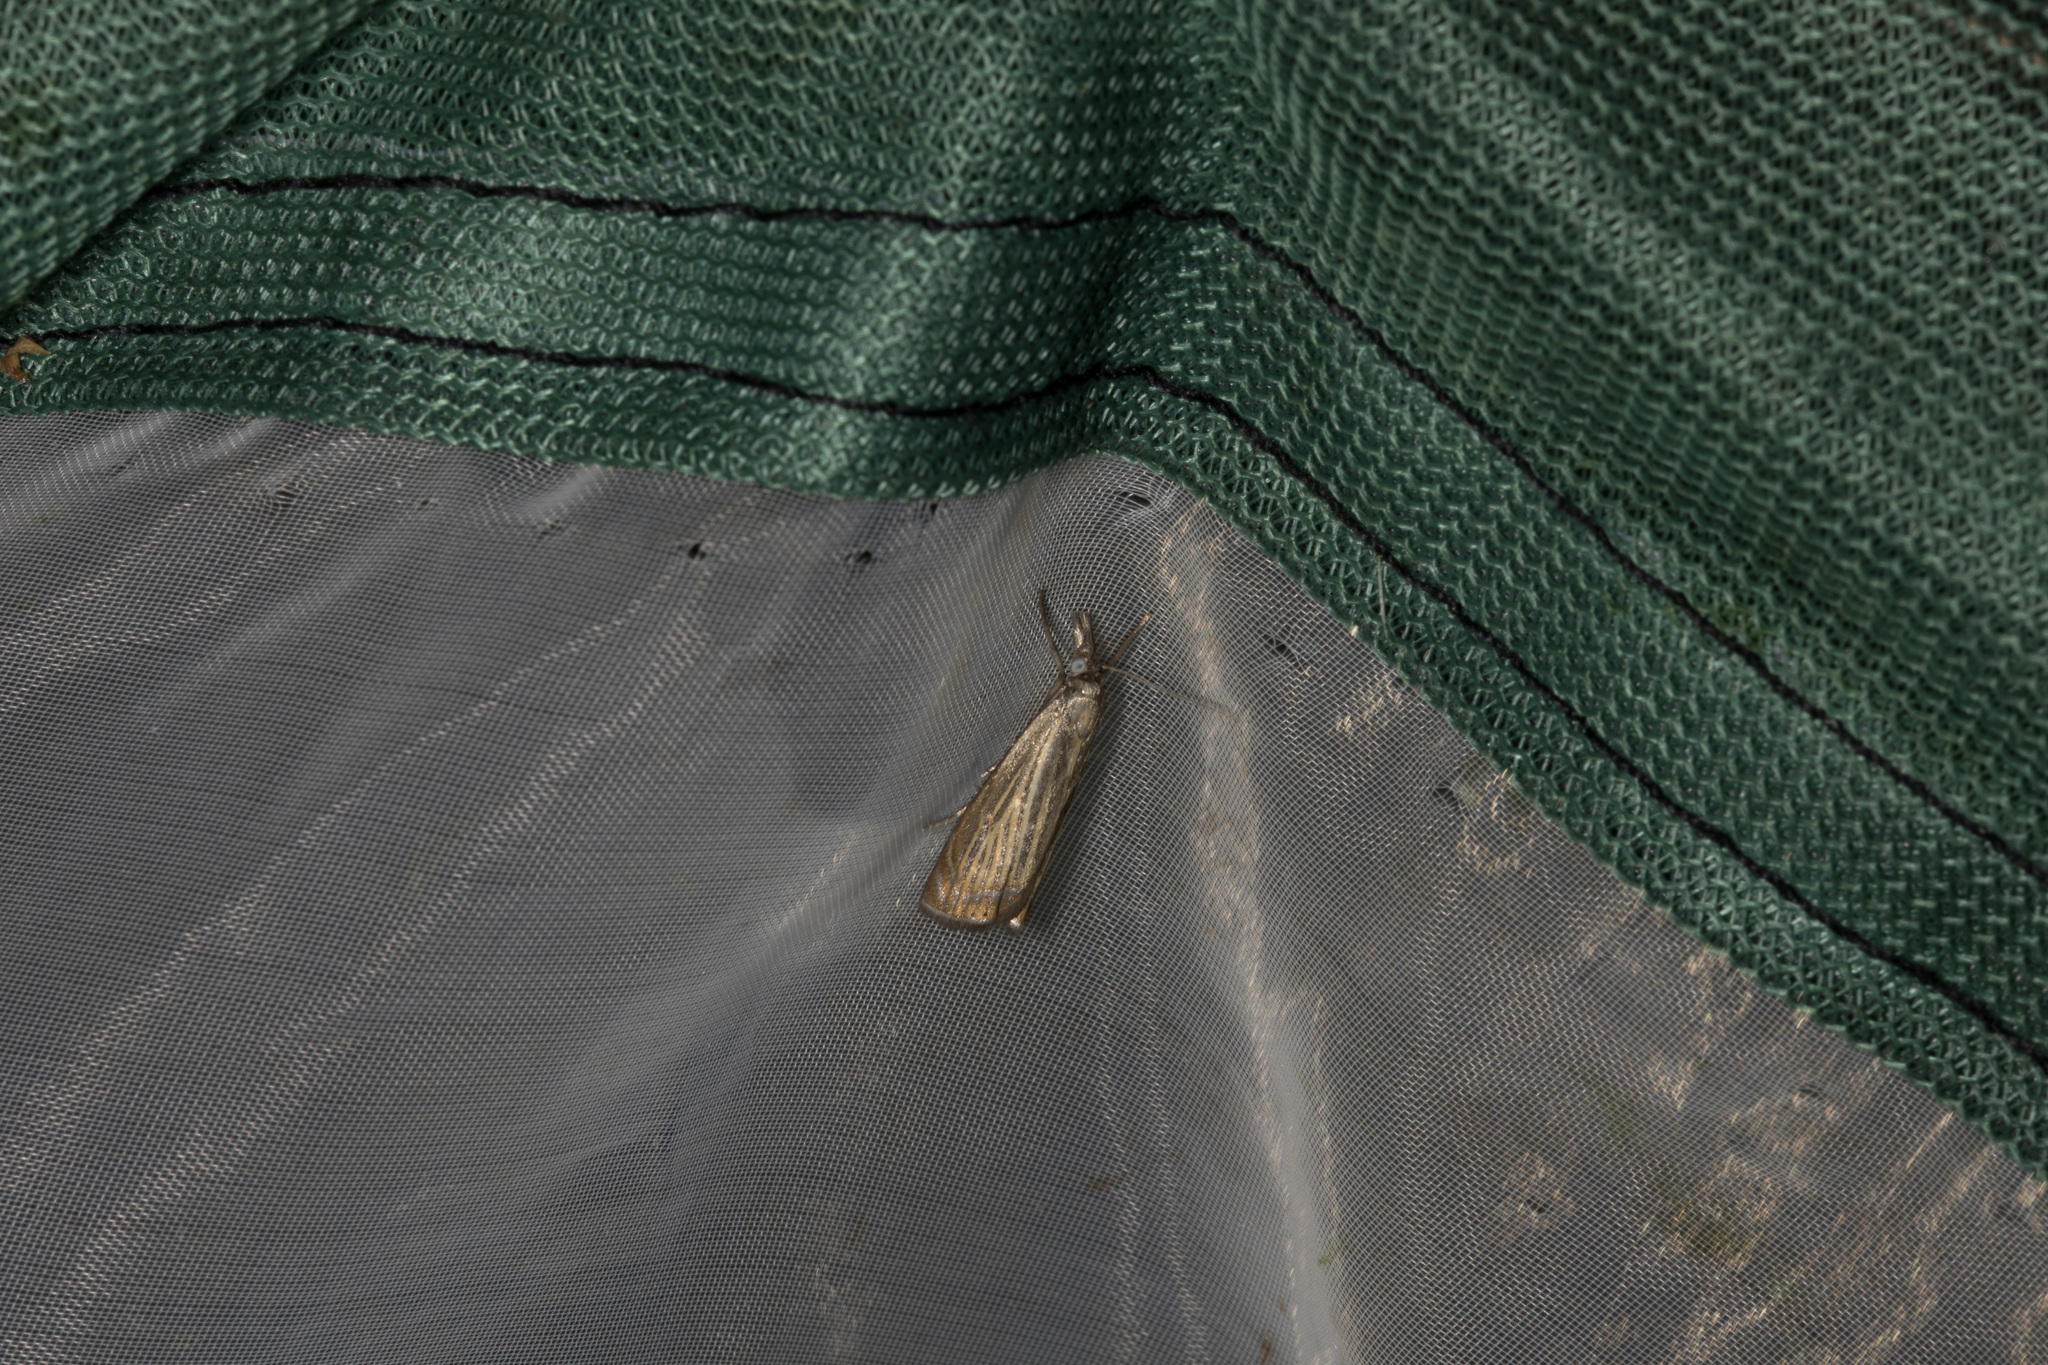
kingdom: Animalia
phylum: Arthropoda
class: Insecta
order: Lepidoptera
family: Crambidae
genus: Chrysoteuchia
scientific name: Chrysoteuchia culmella
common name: Garden grass-veneer
